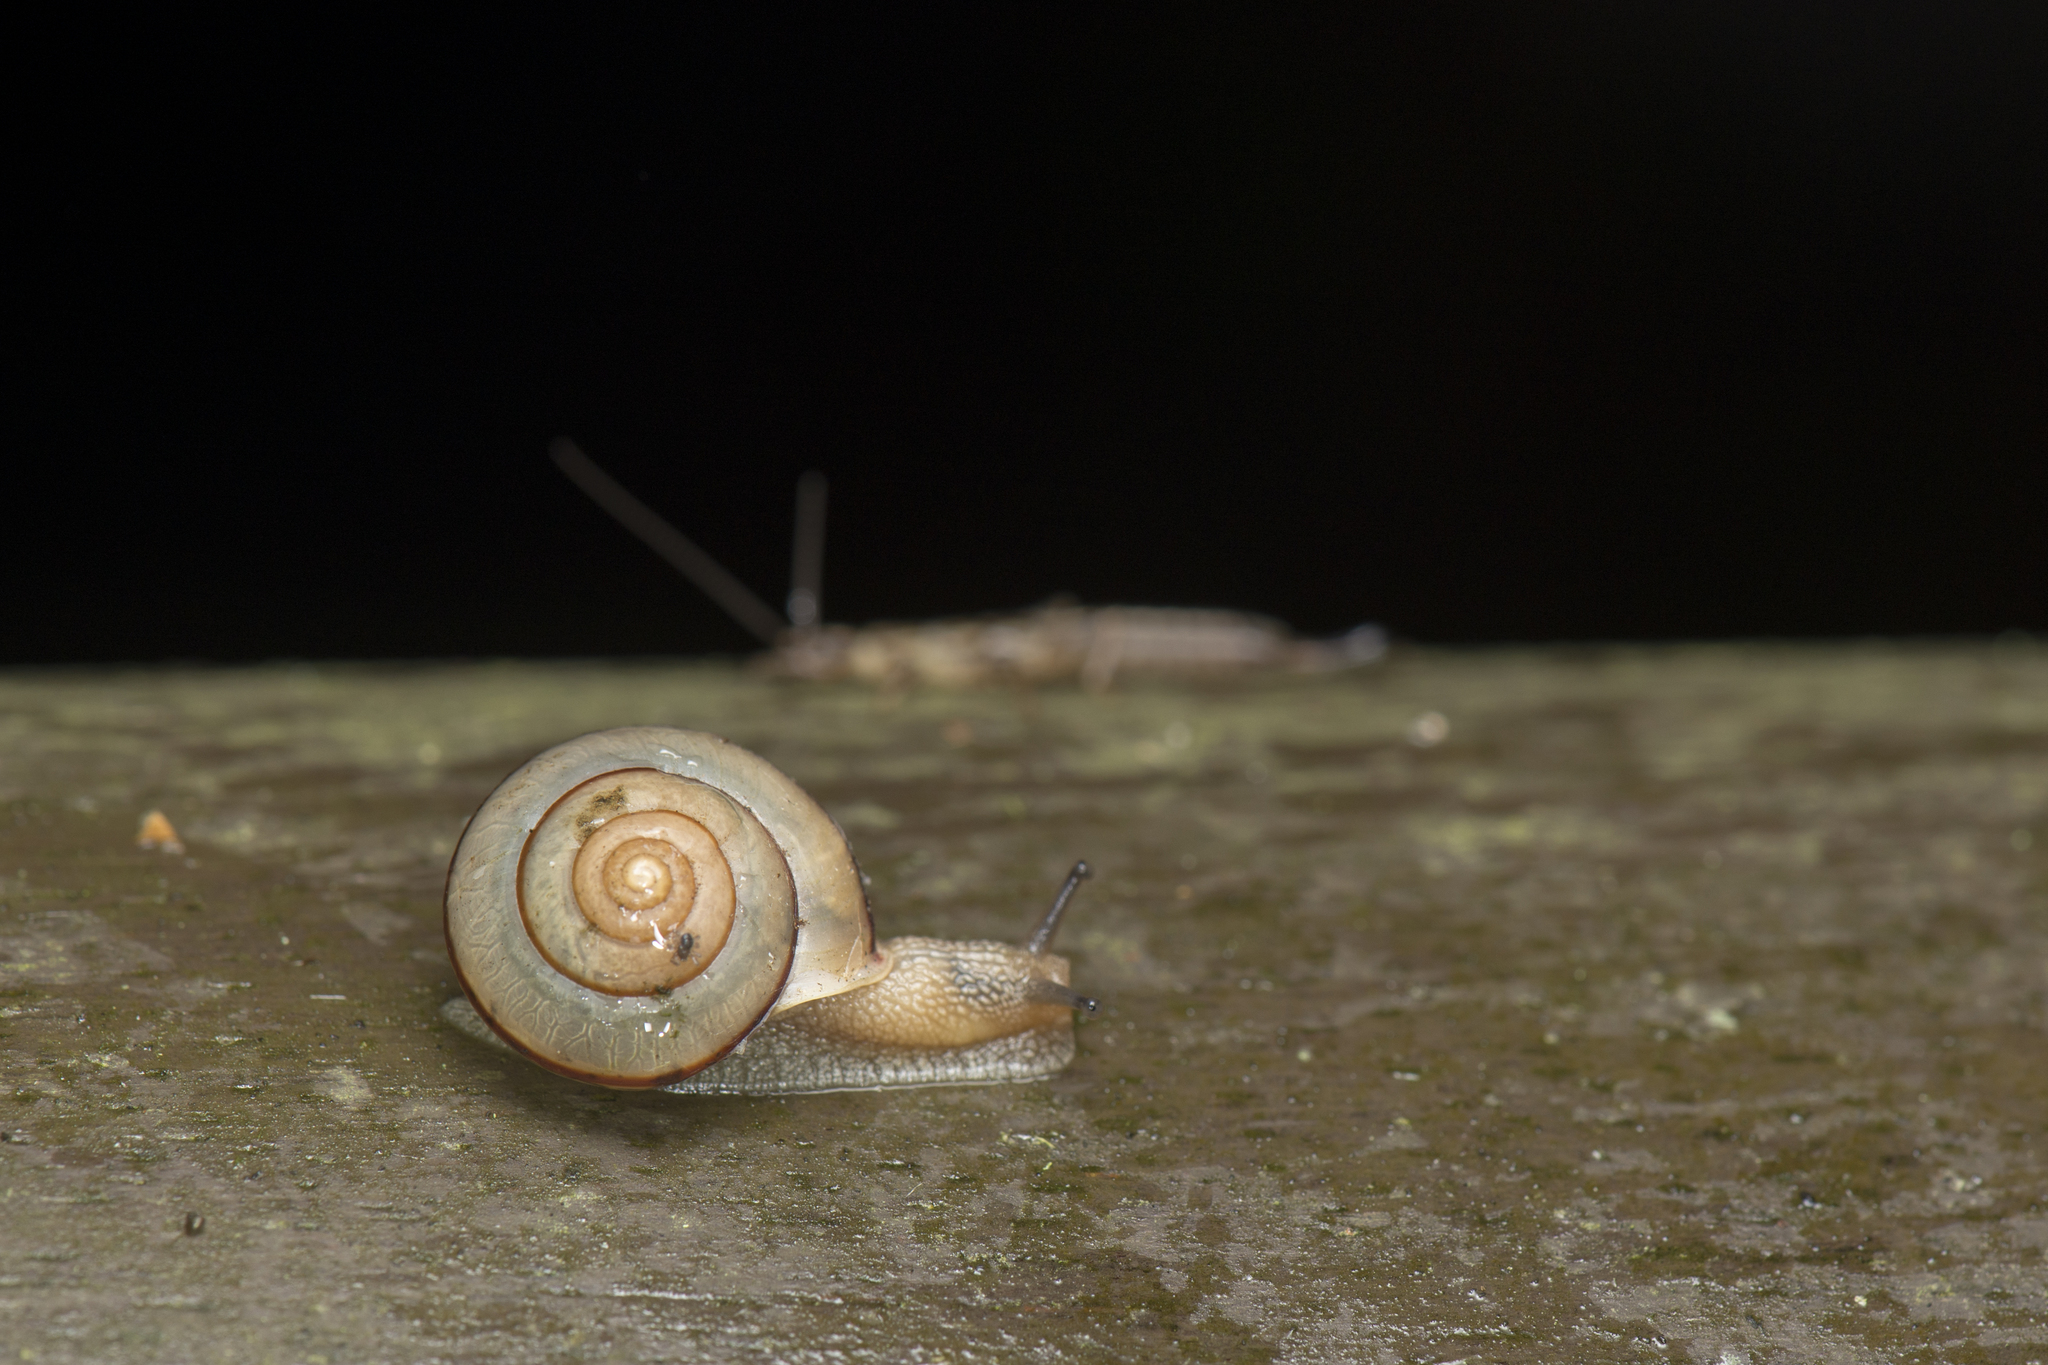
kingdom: Animalia
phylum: Mollusca
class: Gastropoda
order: Stylommatophora
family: Camaenidae
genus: Bradybaena
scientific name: Bradybaena similaris
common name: Asian trampsnail
